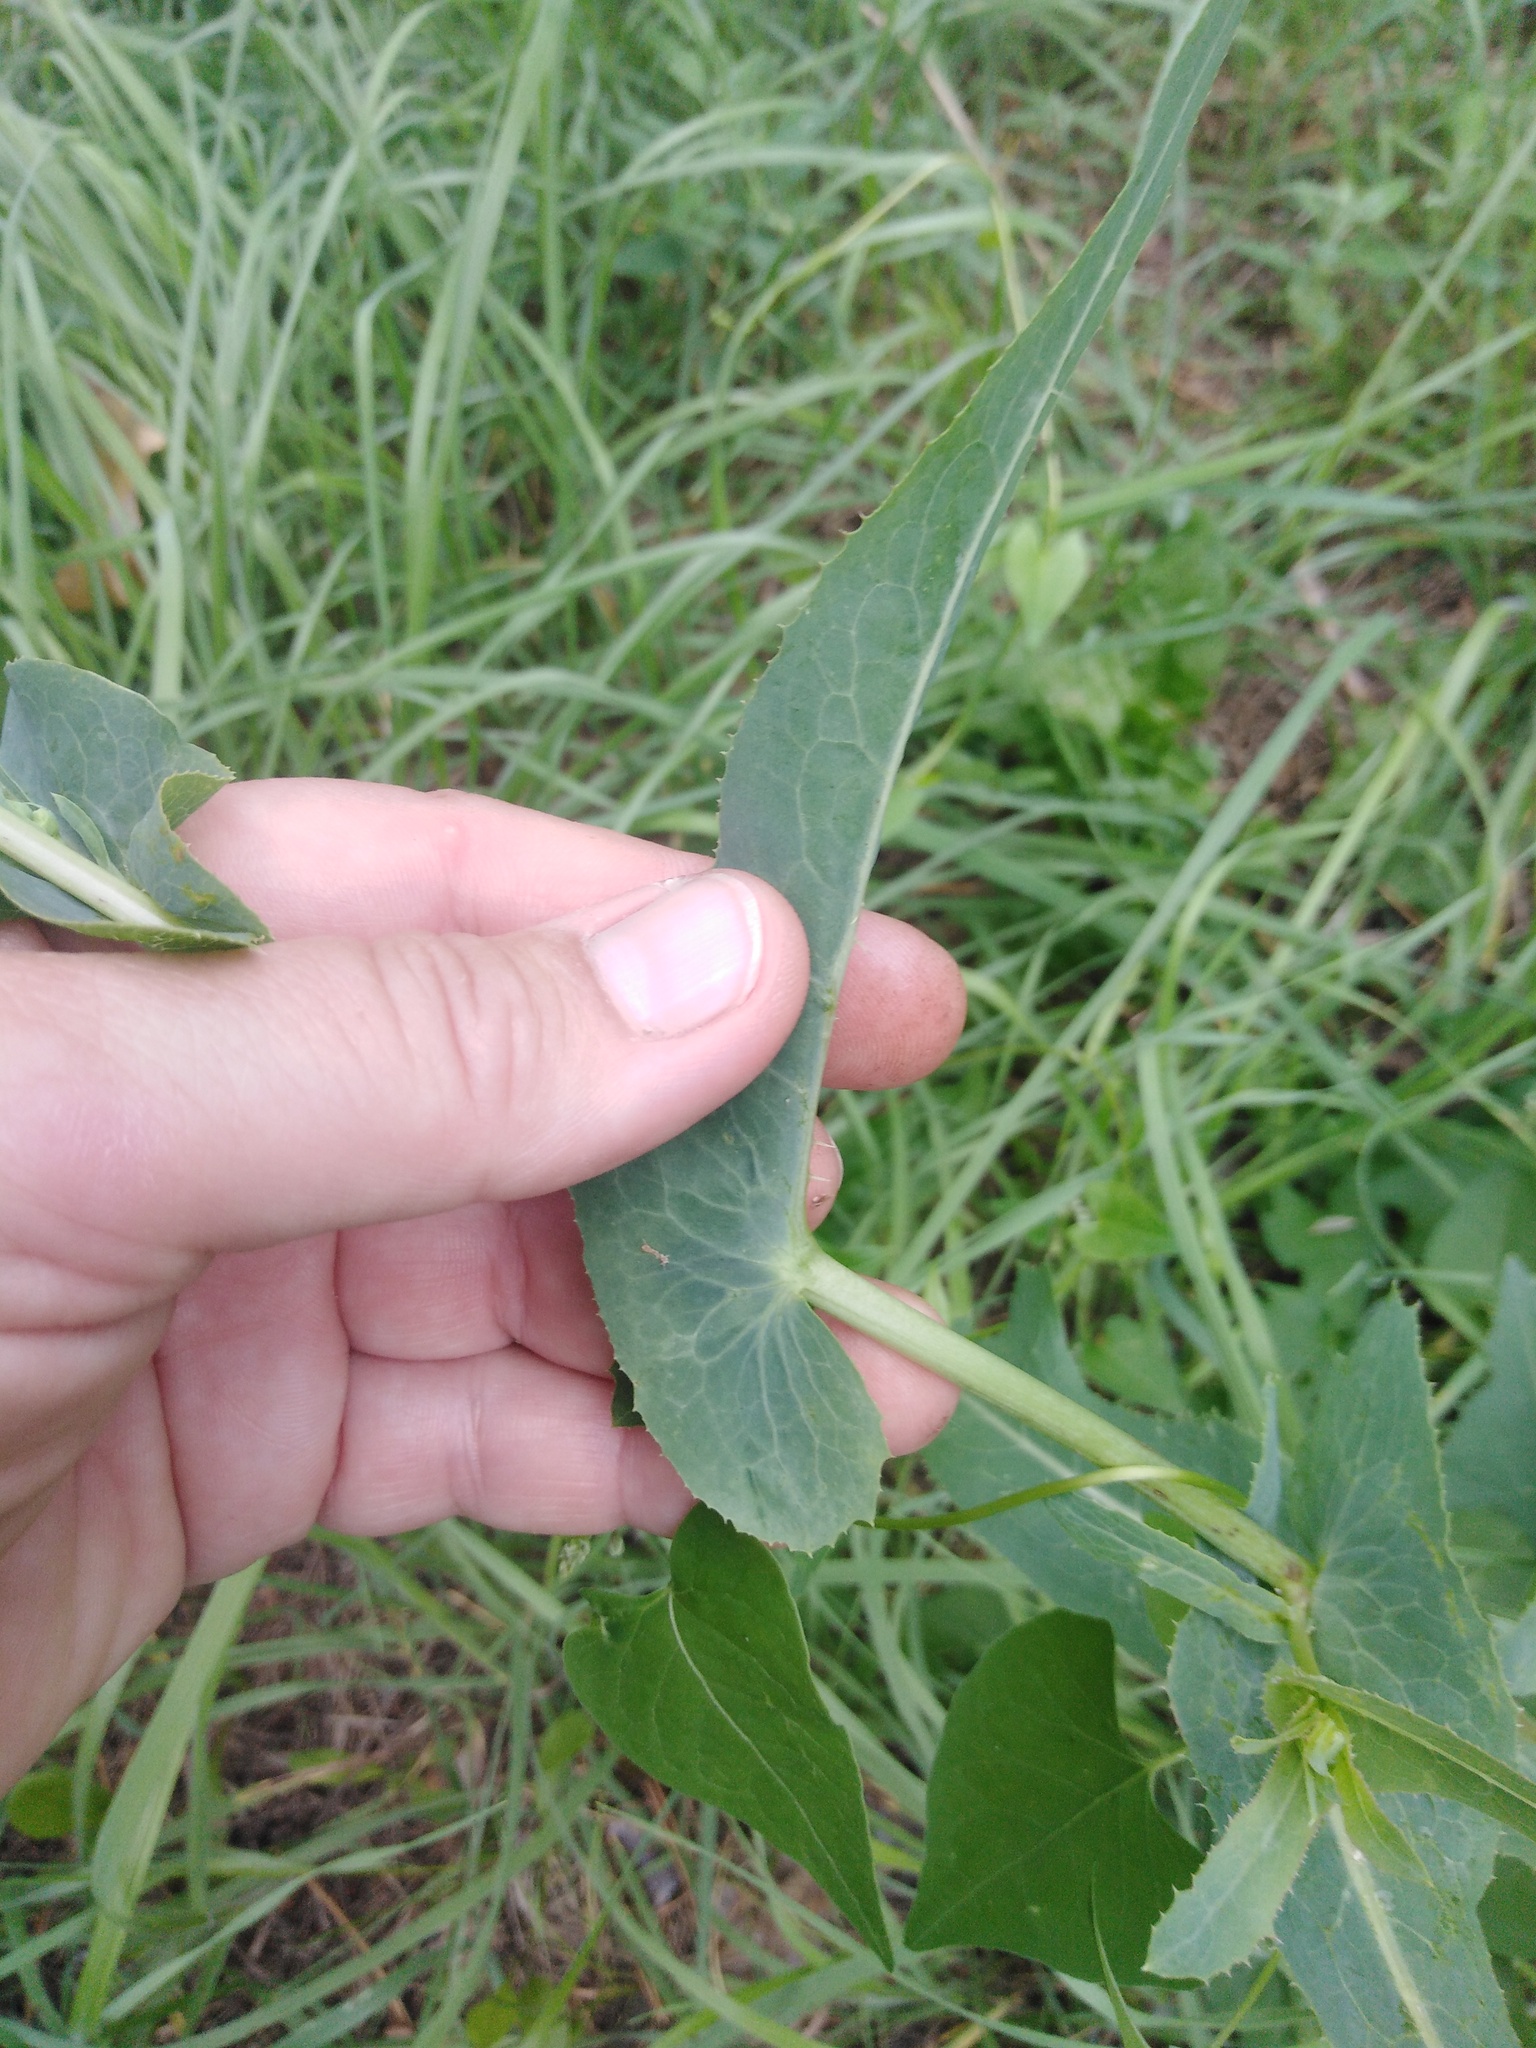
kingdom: Plantae
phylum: Tracheophyta
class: Magnoliopsida
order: Asterales
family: Asteraceae
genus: Lactuca
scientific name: Lactuca serriola
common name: Prickly lettuce
